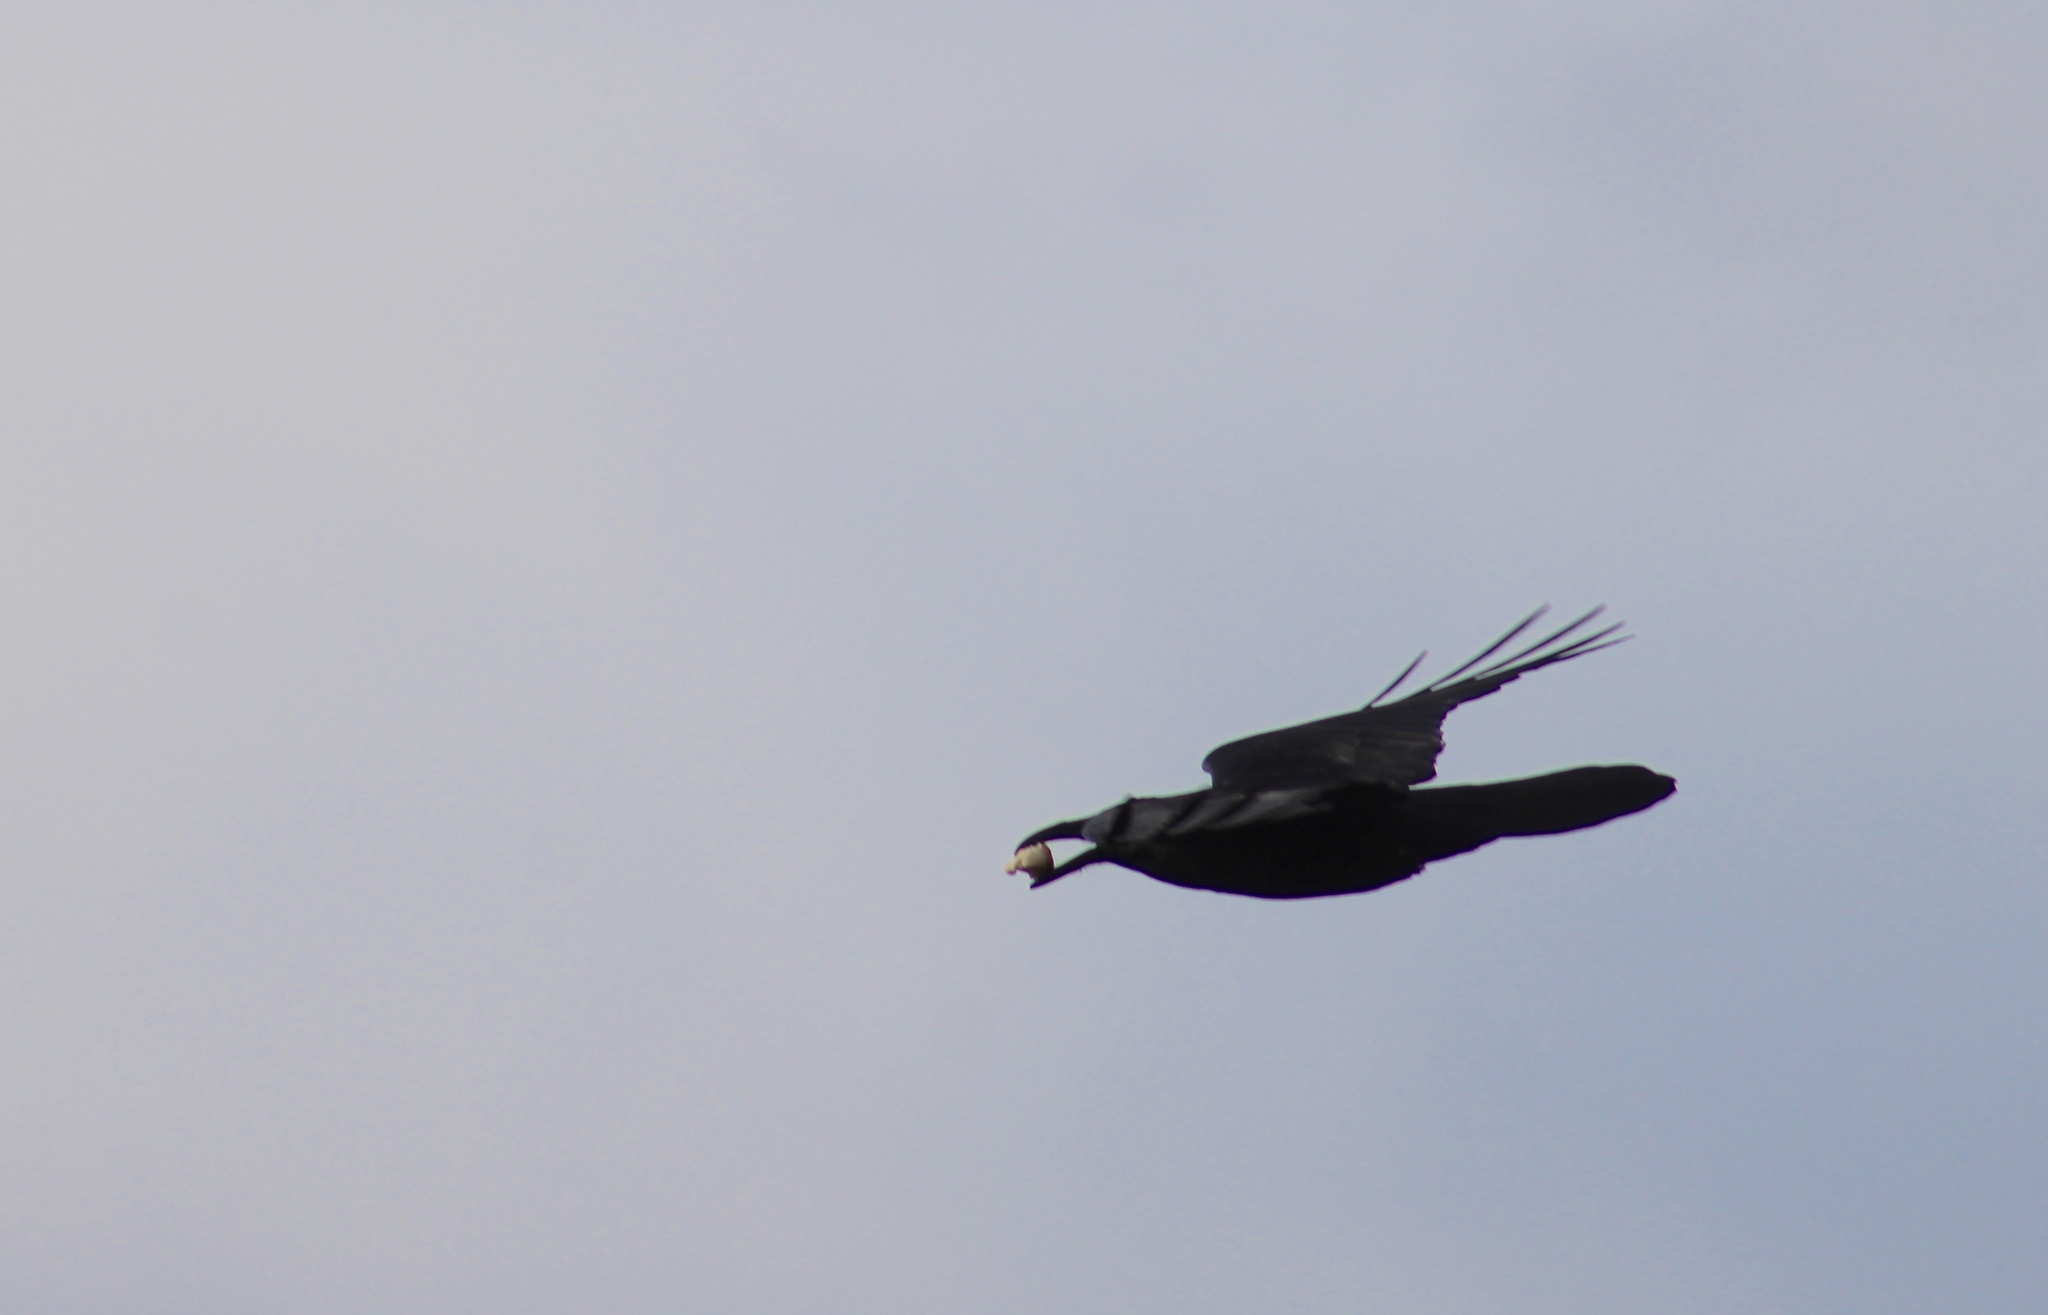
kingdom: Animalia
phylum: Chordata
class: Aves
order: Passeriformes
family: Corvidae
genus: Corvus
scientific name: Corvus corax
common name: Common raven
